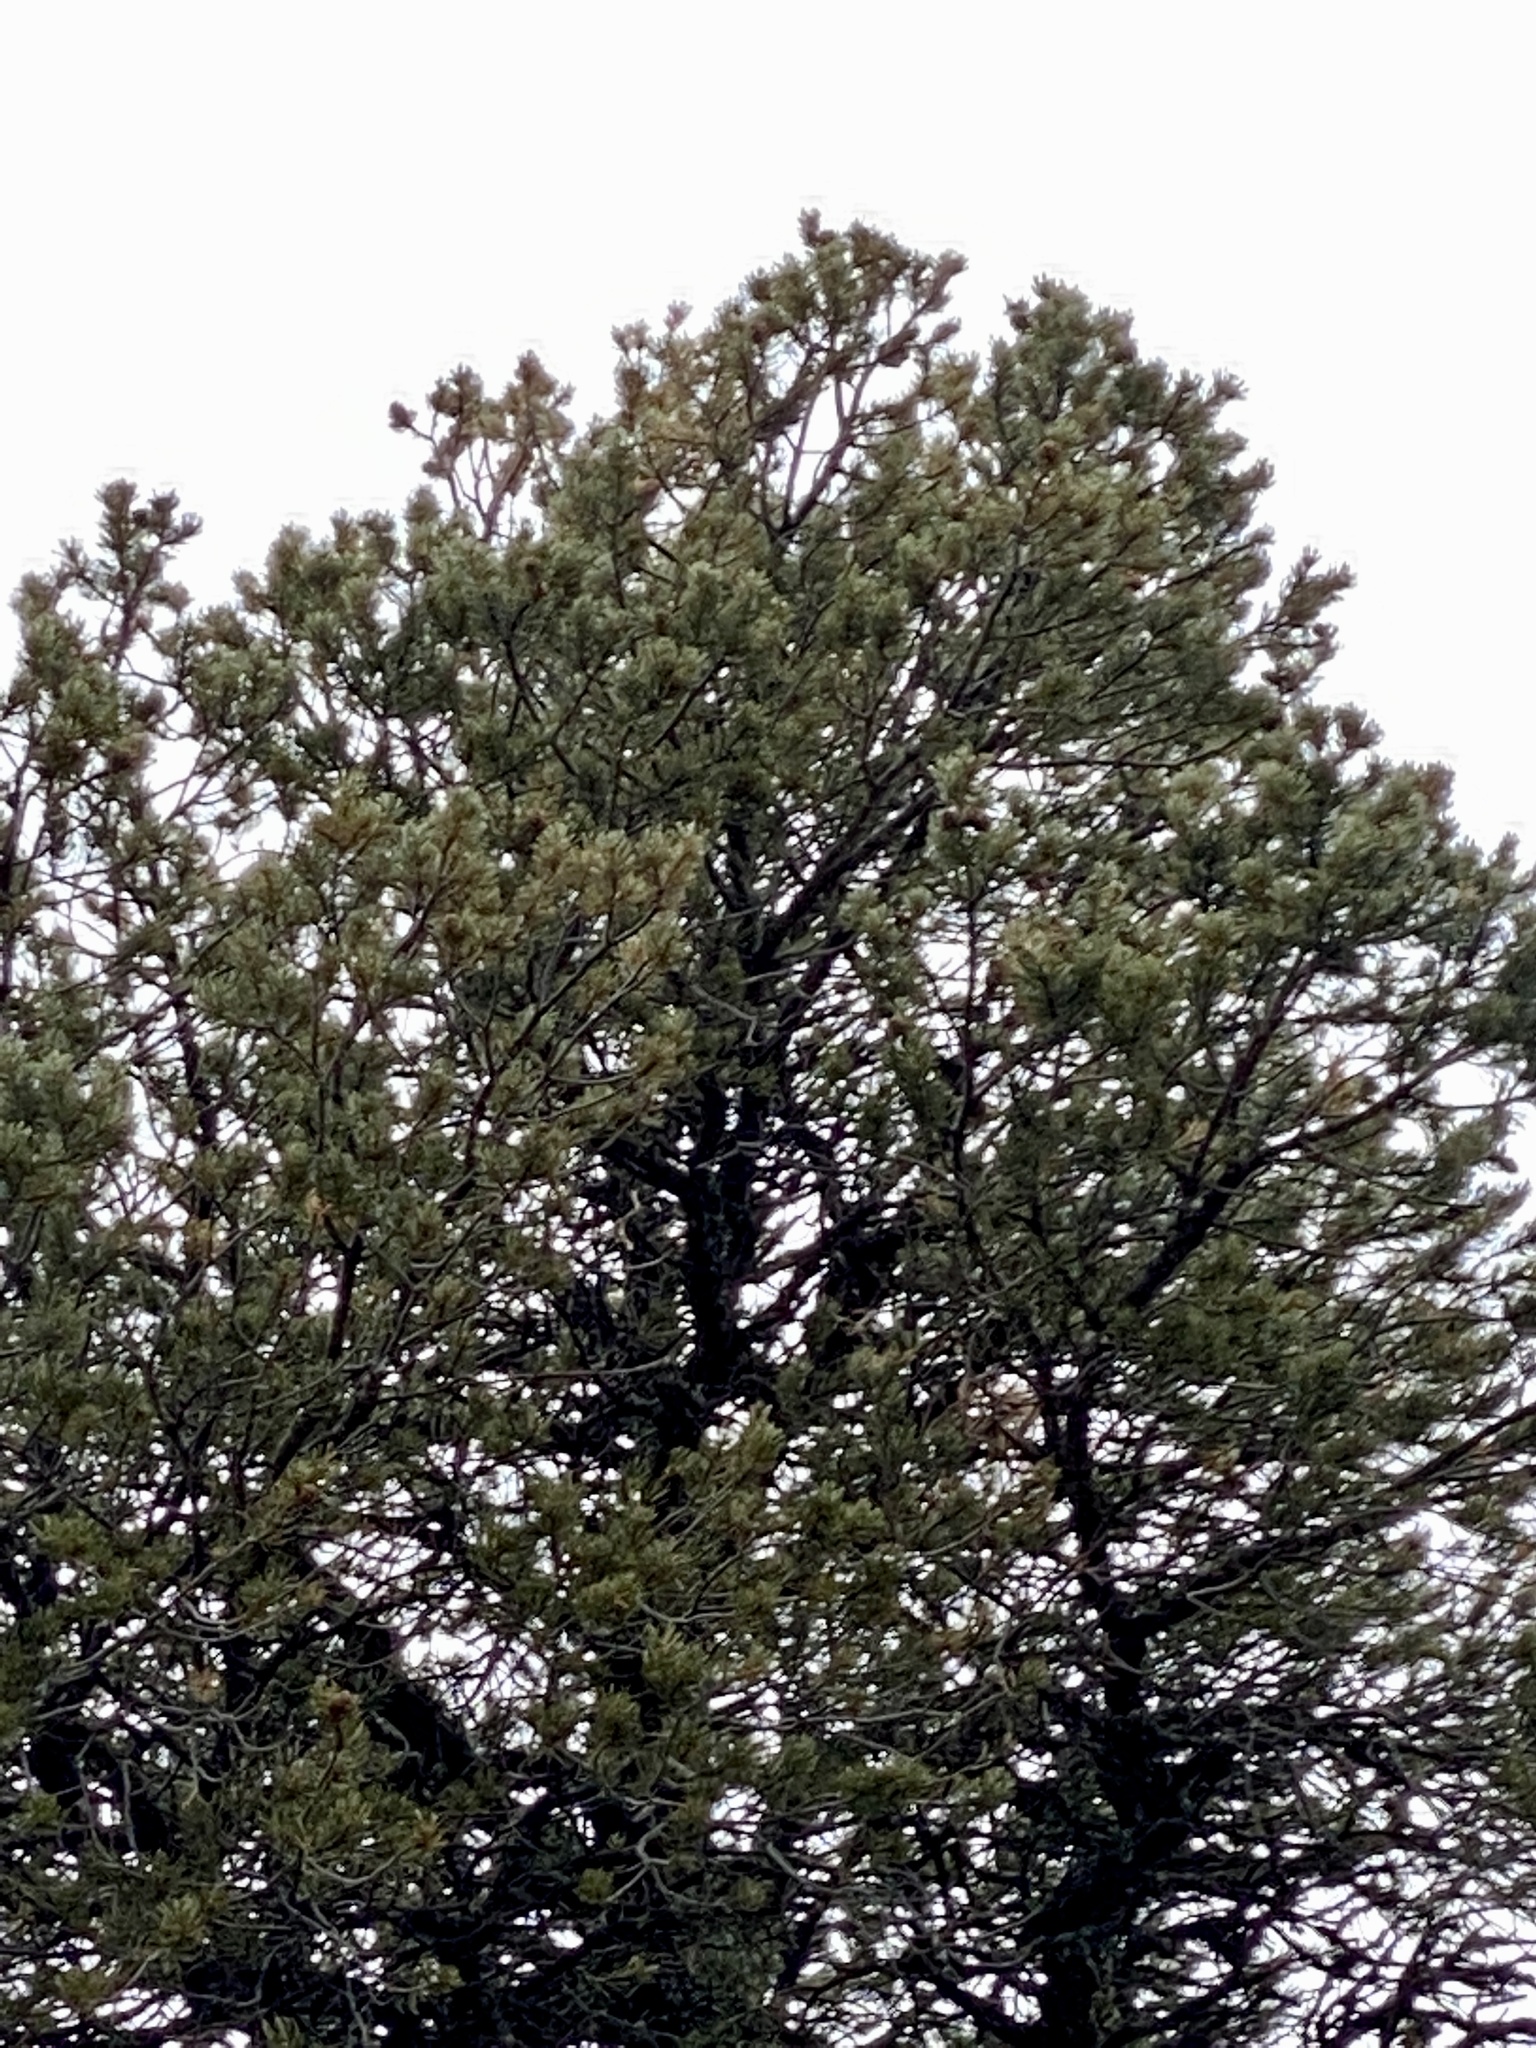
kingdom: Plantae
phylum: Tracheophyta
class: Pinopsida
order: Pinales
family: Pinaceae
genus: Pinus
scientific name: Pinus edulis
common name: Colorado pinyon
